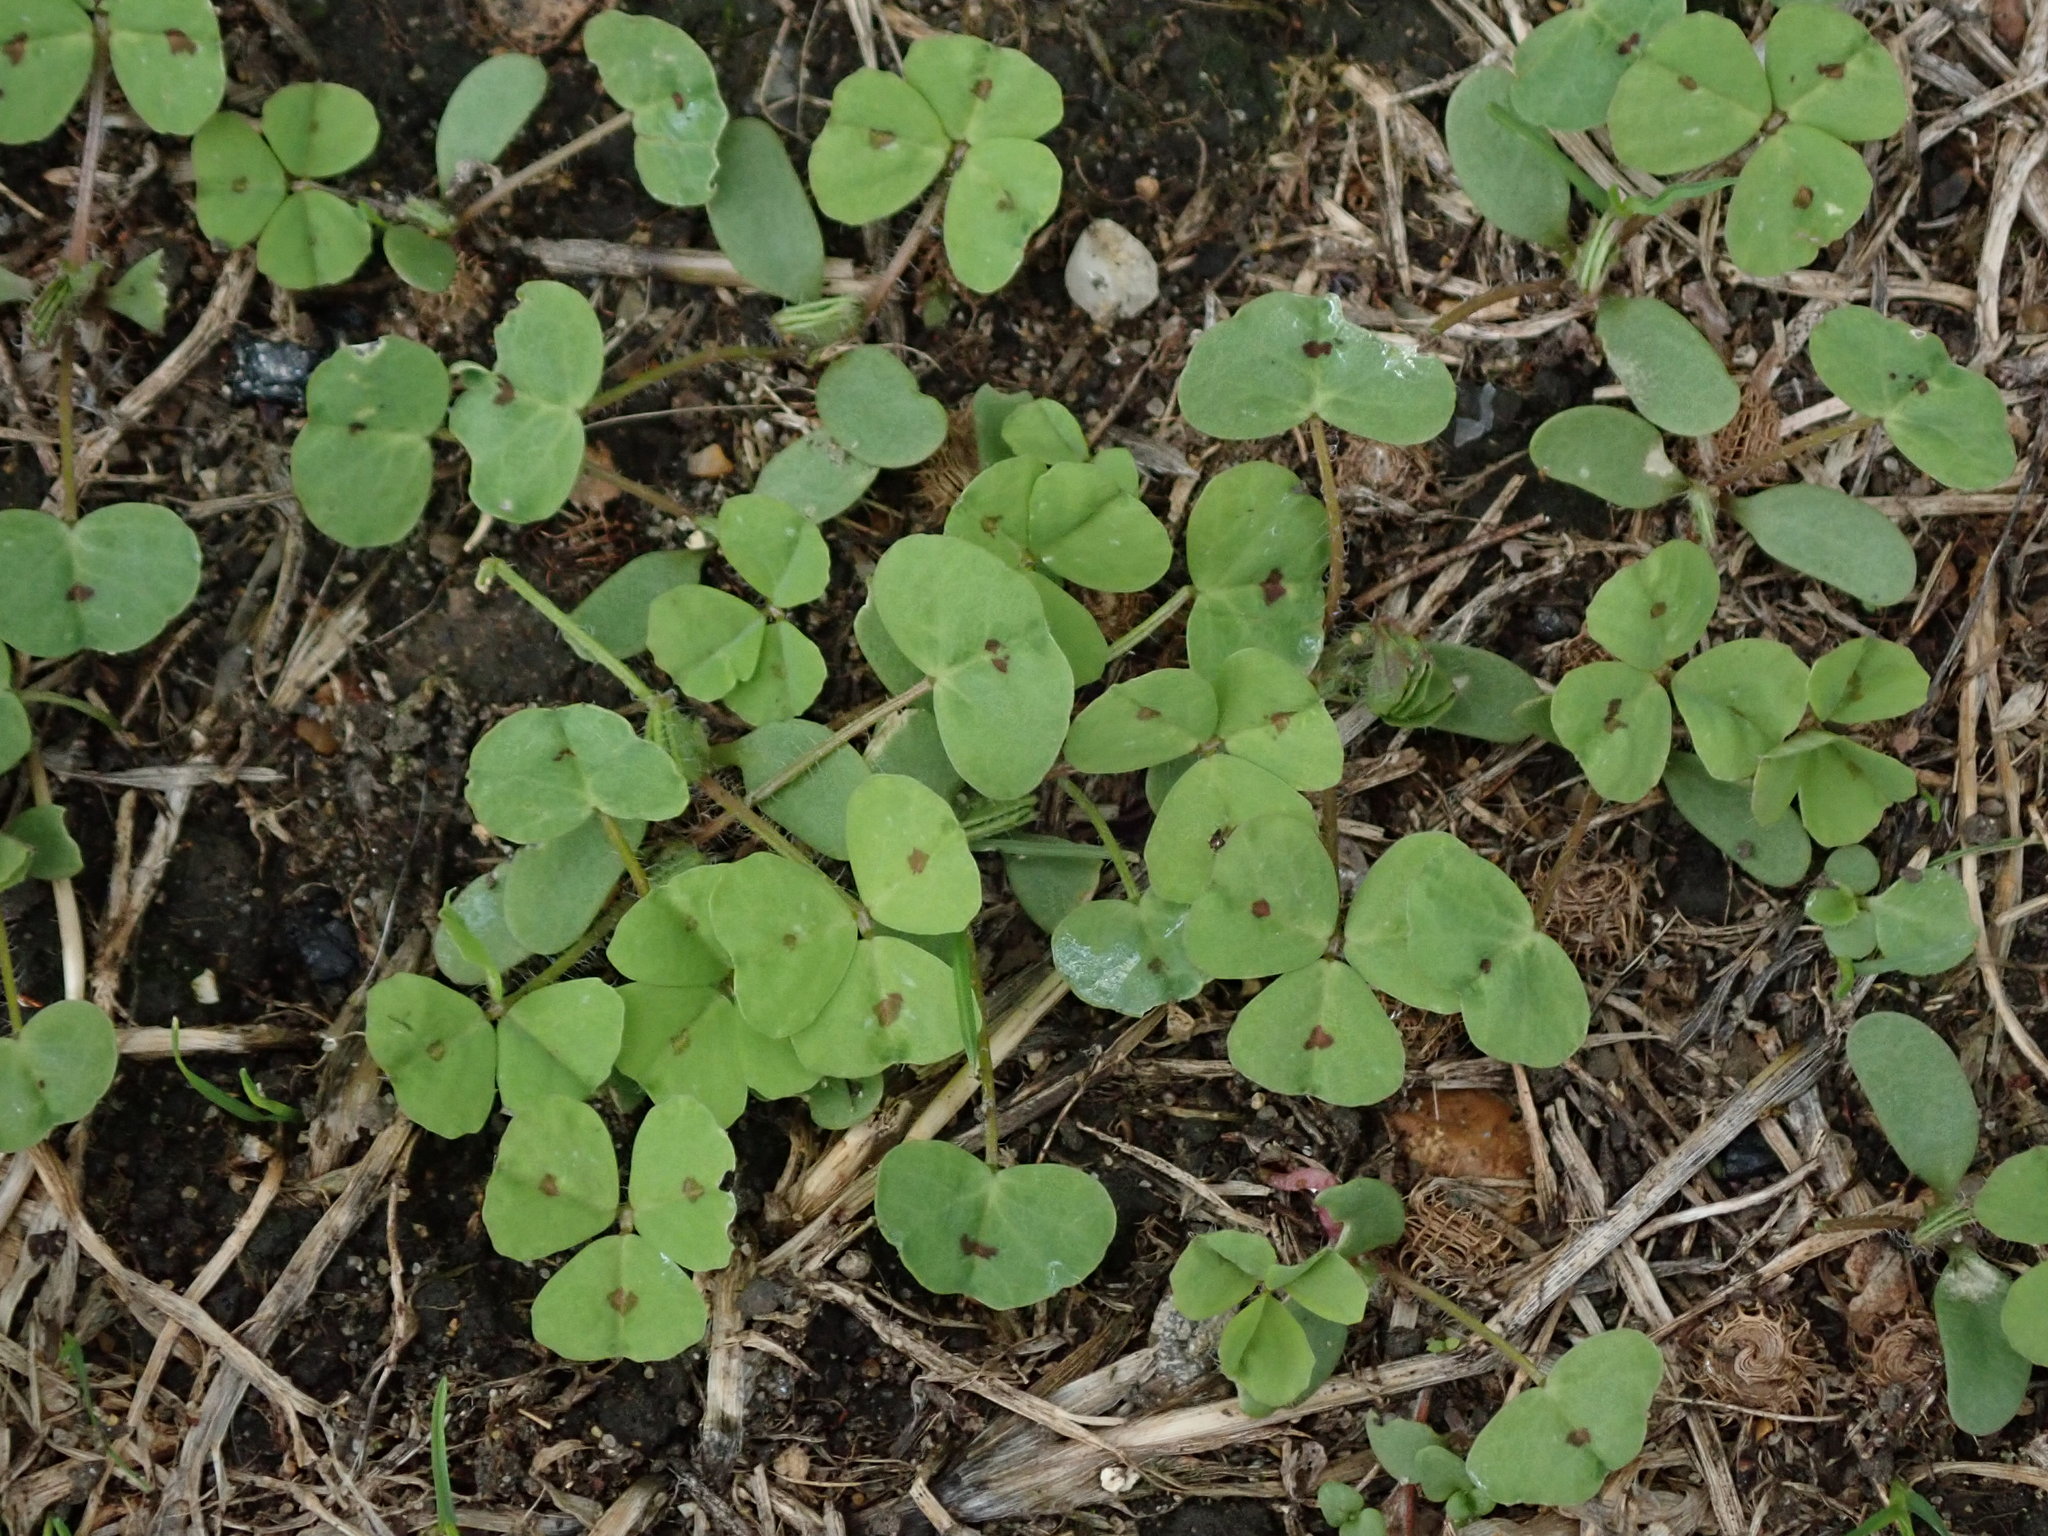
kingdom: Plantae
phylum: Tracheophyta
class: Magnoliopsida
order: Fabales
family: Fabaceae
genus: Medicago
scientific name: Medicago arabica
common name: Spotted medick
